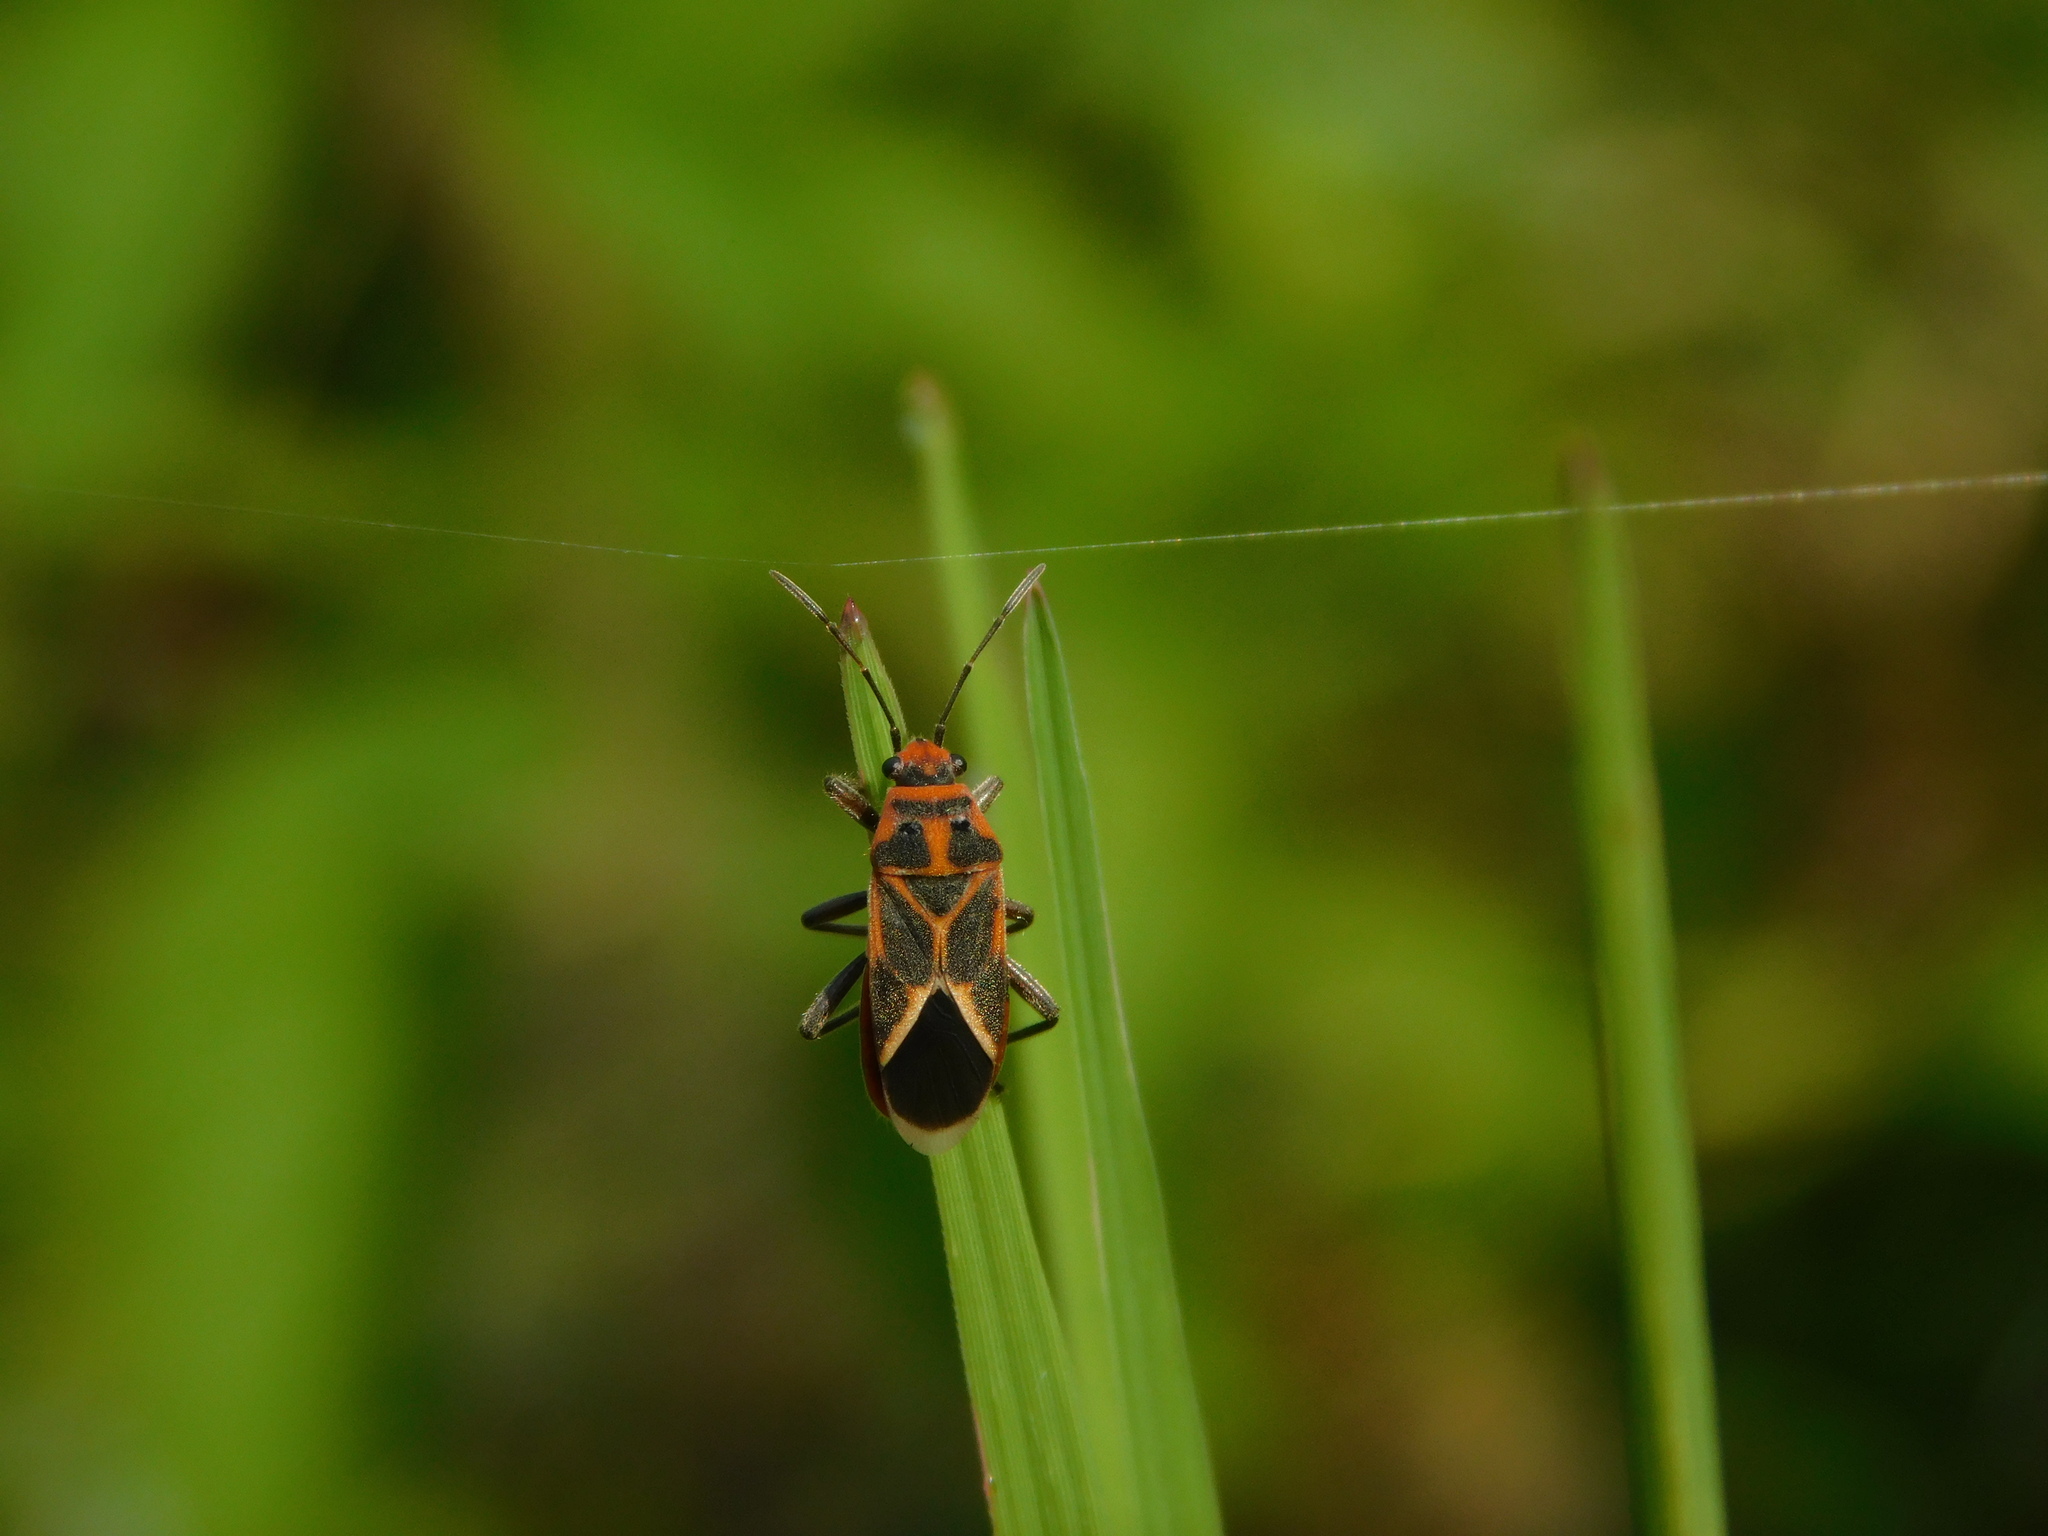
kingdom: Animalia
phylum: Arthropoda
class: Insecta
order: Hemiptera
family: Lygaeidae
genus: Graptostethus
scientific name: Graptostethus servus
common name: Lygaeid bug
